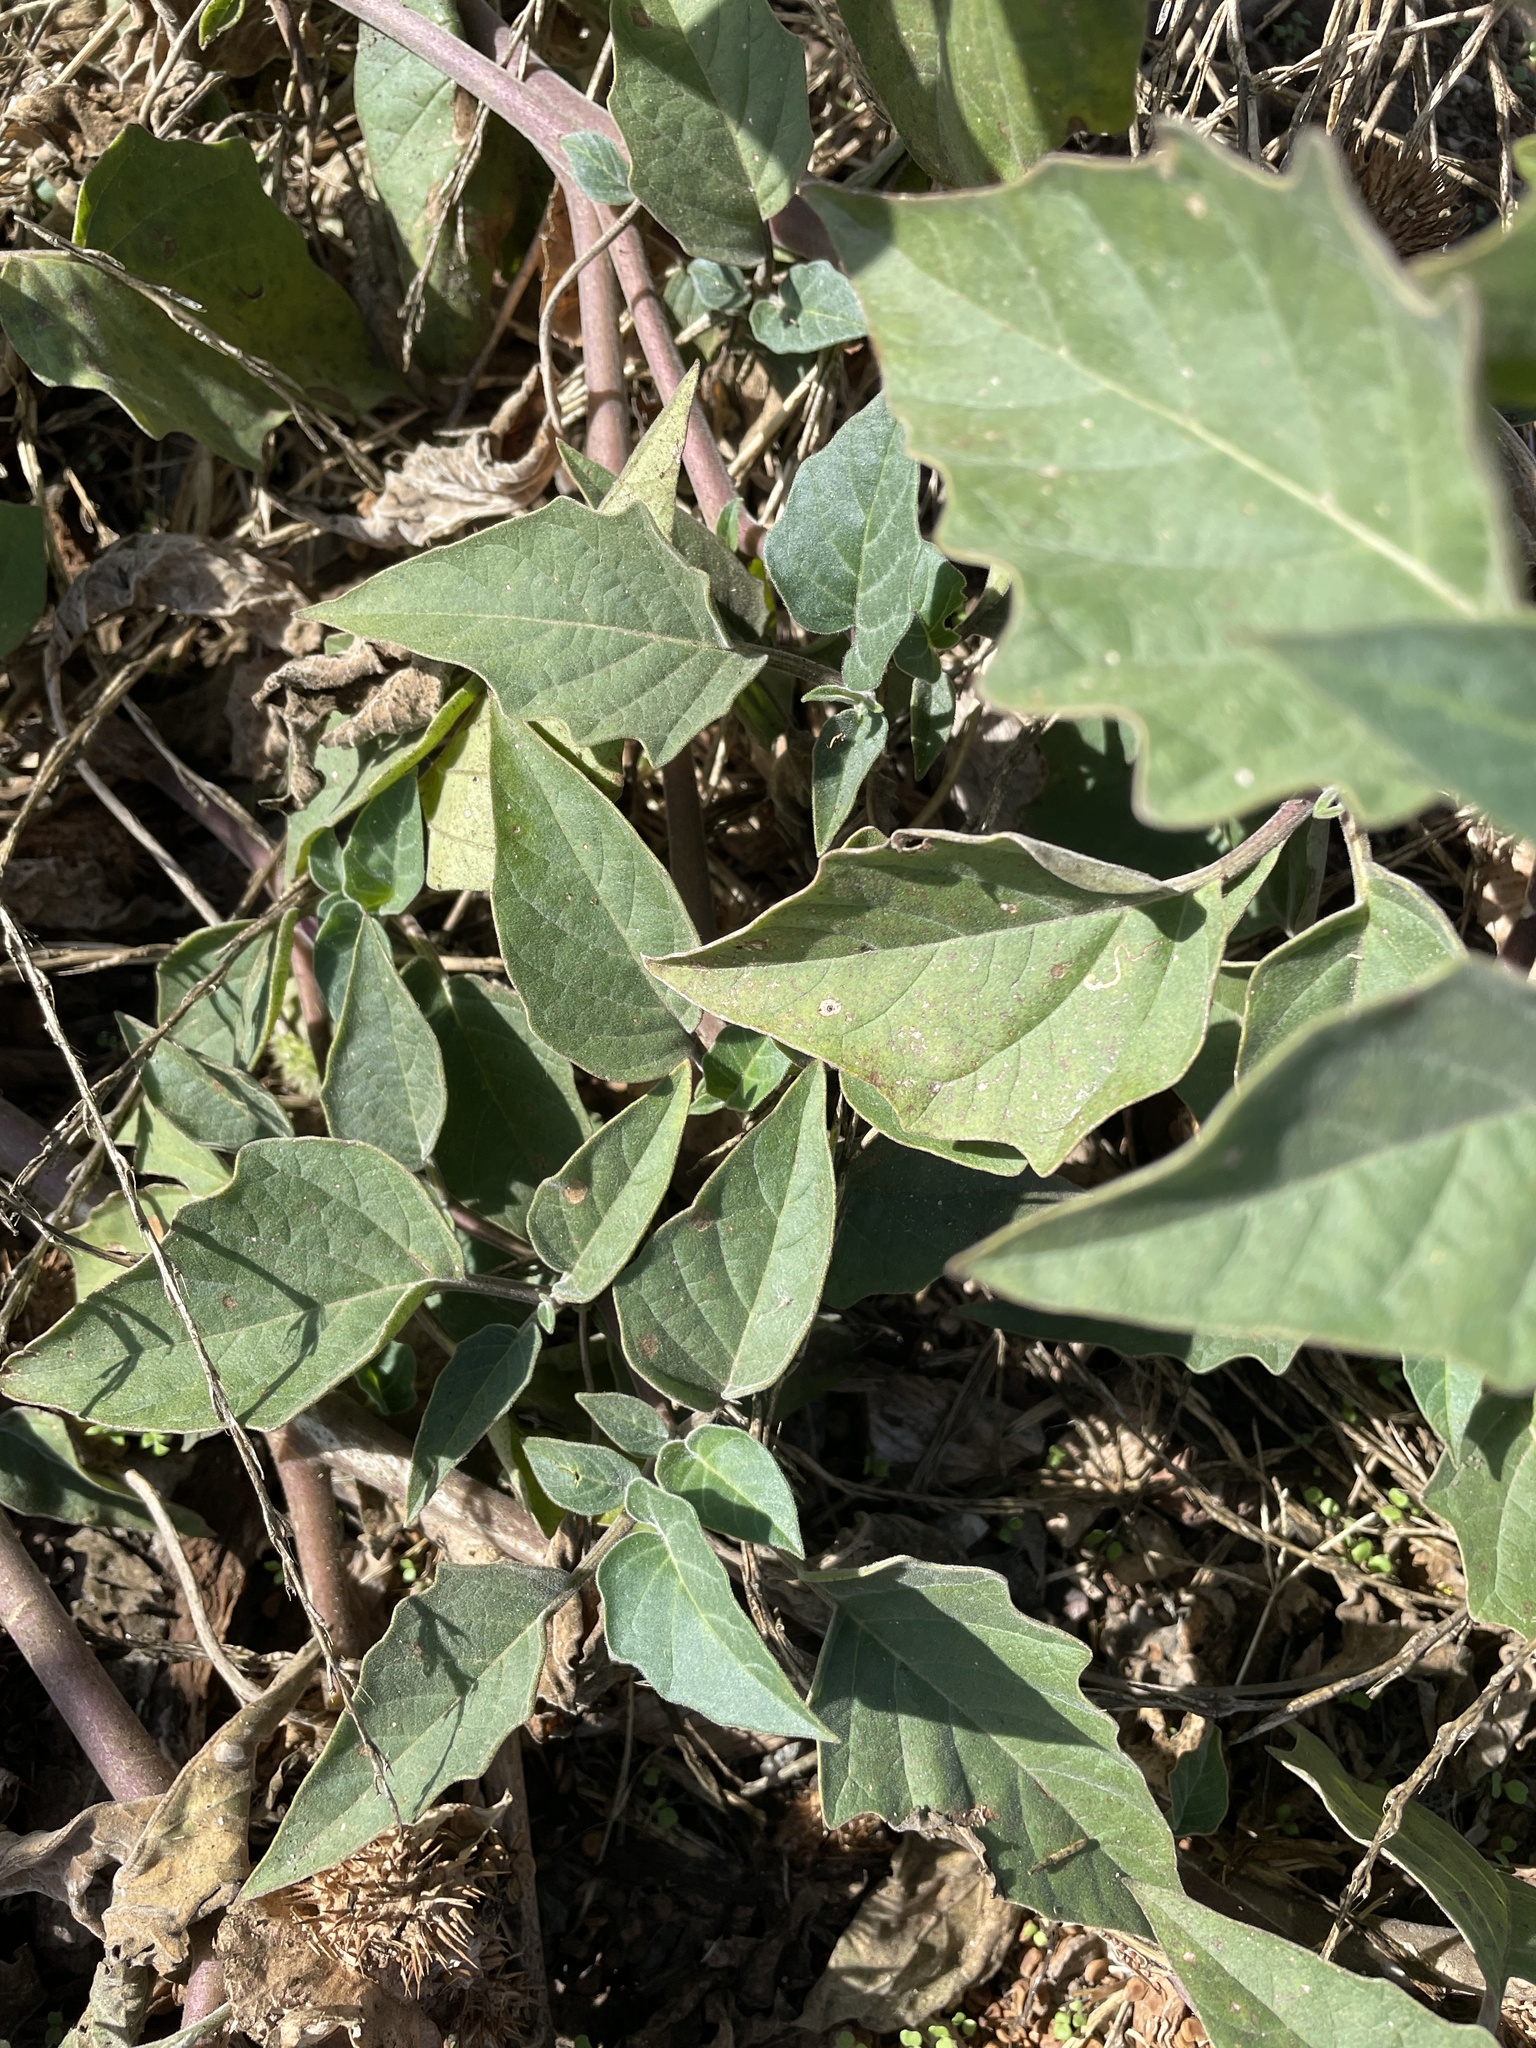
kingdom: Plantae
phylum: Tracheophyta
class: Magnoliopsida
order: Solanales
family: Solanaceae
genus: Datura
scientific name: Datura wrightii
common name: Sacred thorn-apple
